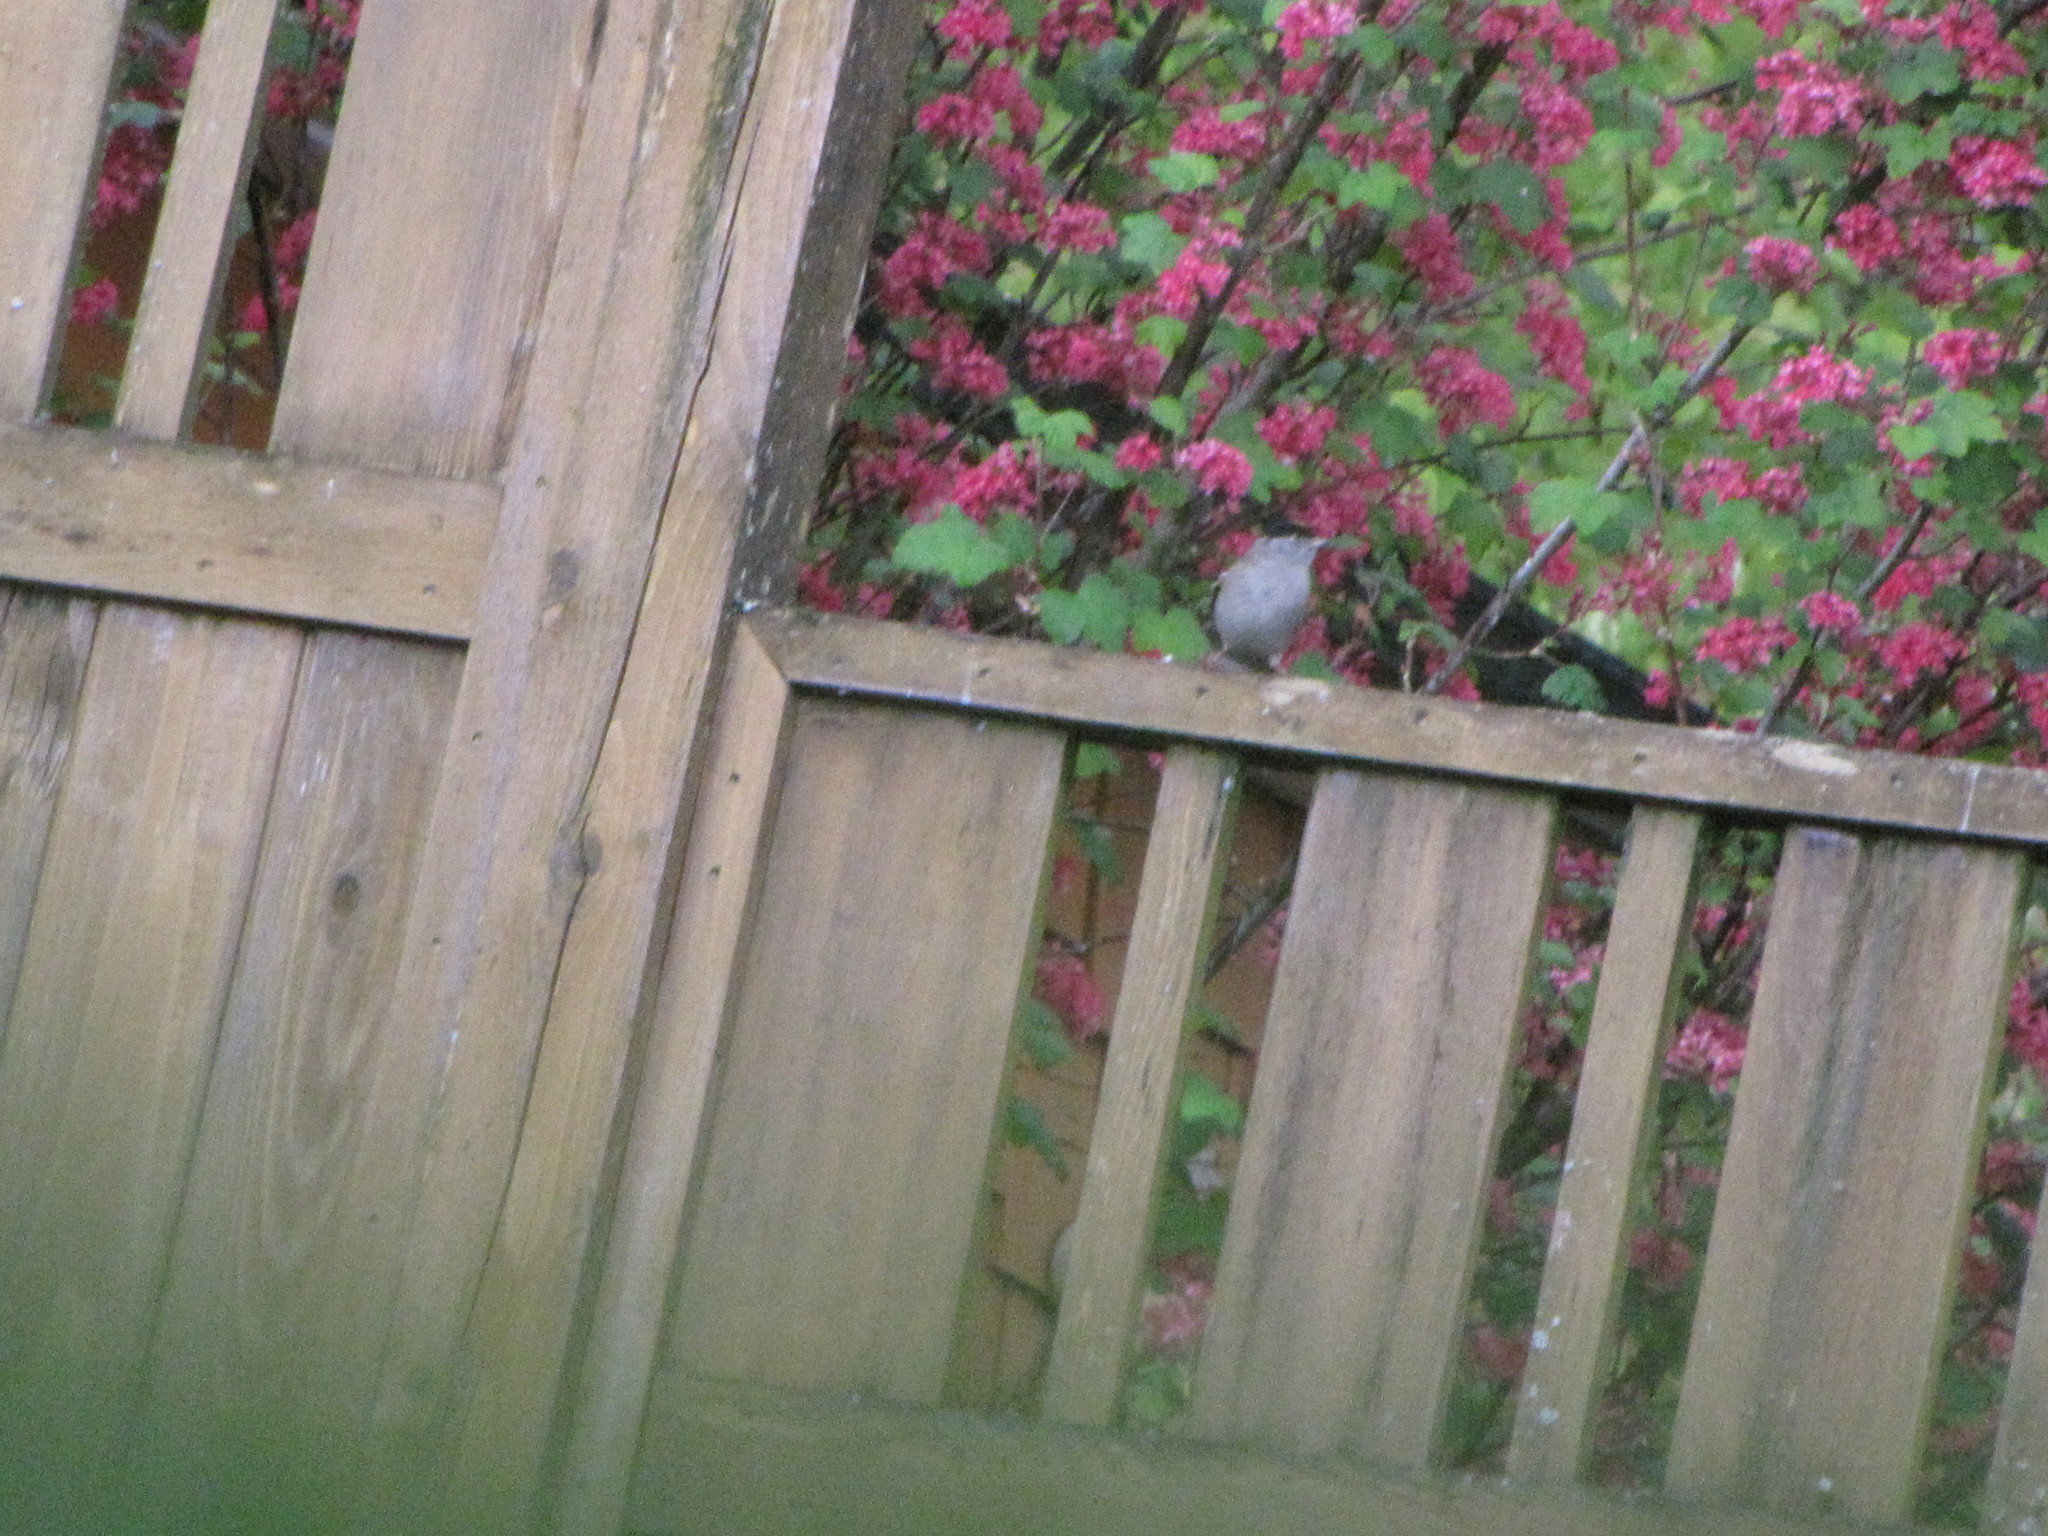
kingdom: Animalia
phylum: Chordata
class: Aves
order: Passeriformes
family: Passerellidae
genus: Zonotrichia
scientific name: Zonotrichia atricapilla
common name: Golden-crowned sparrow
